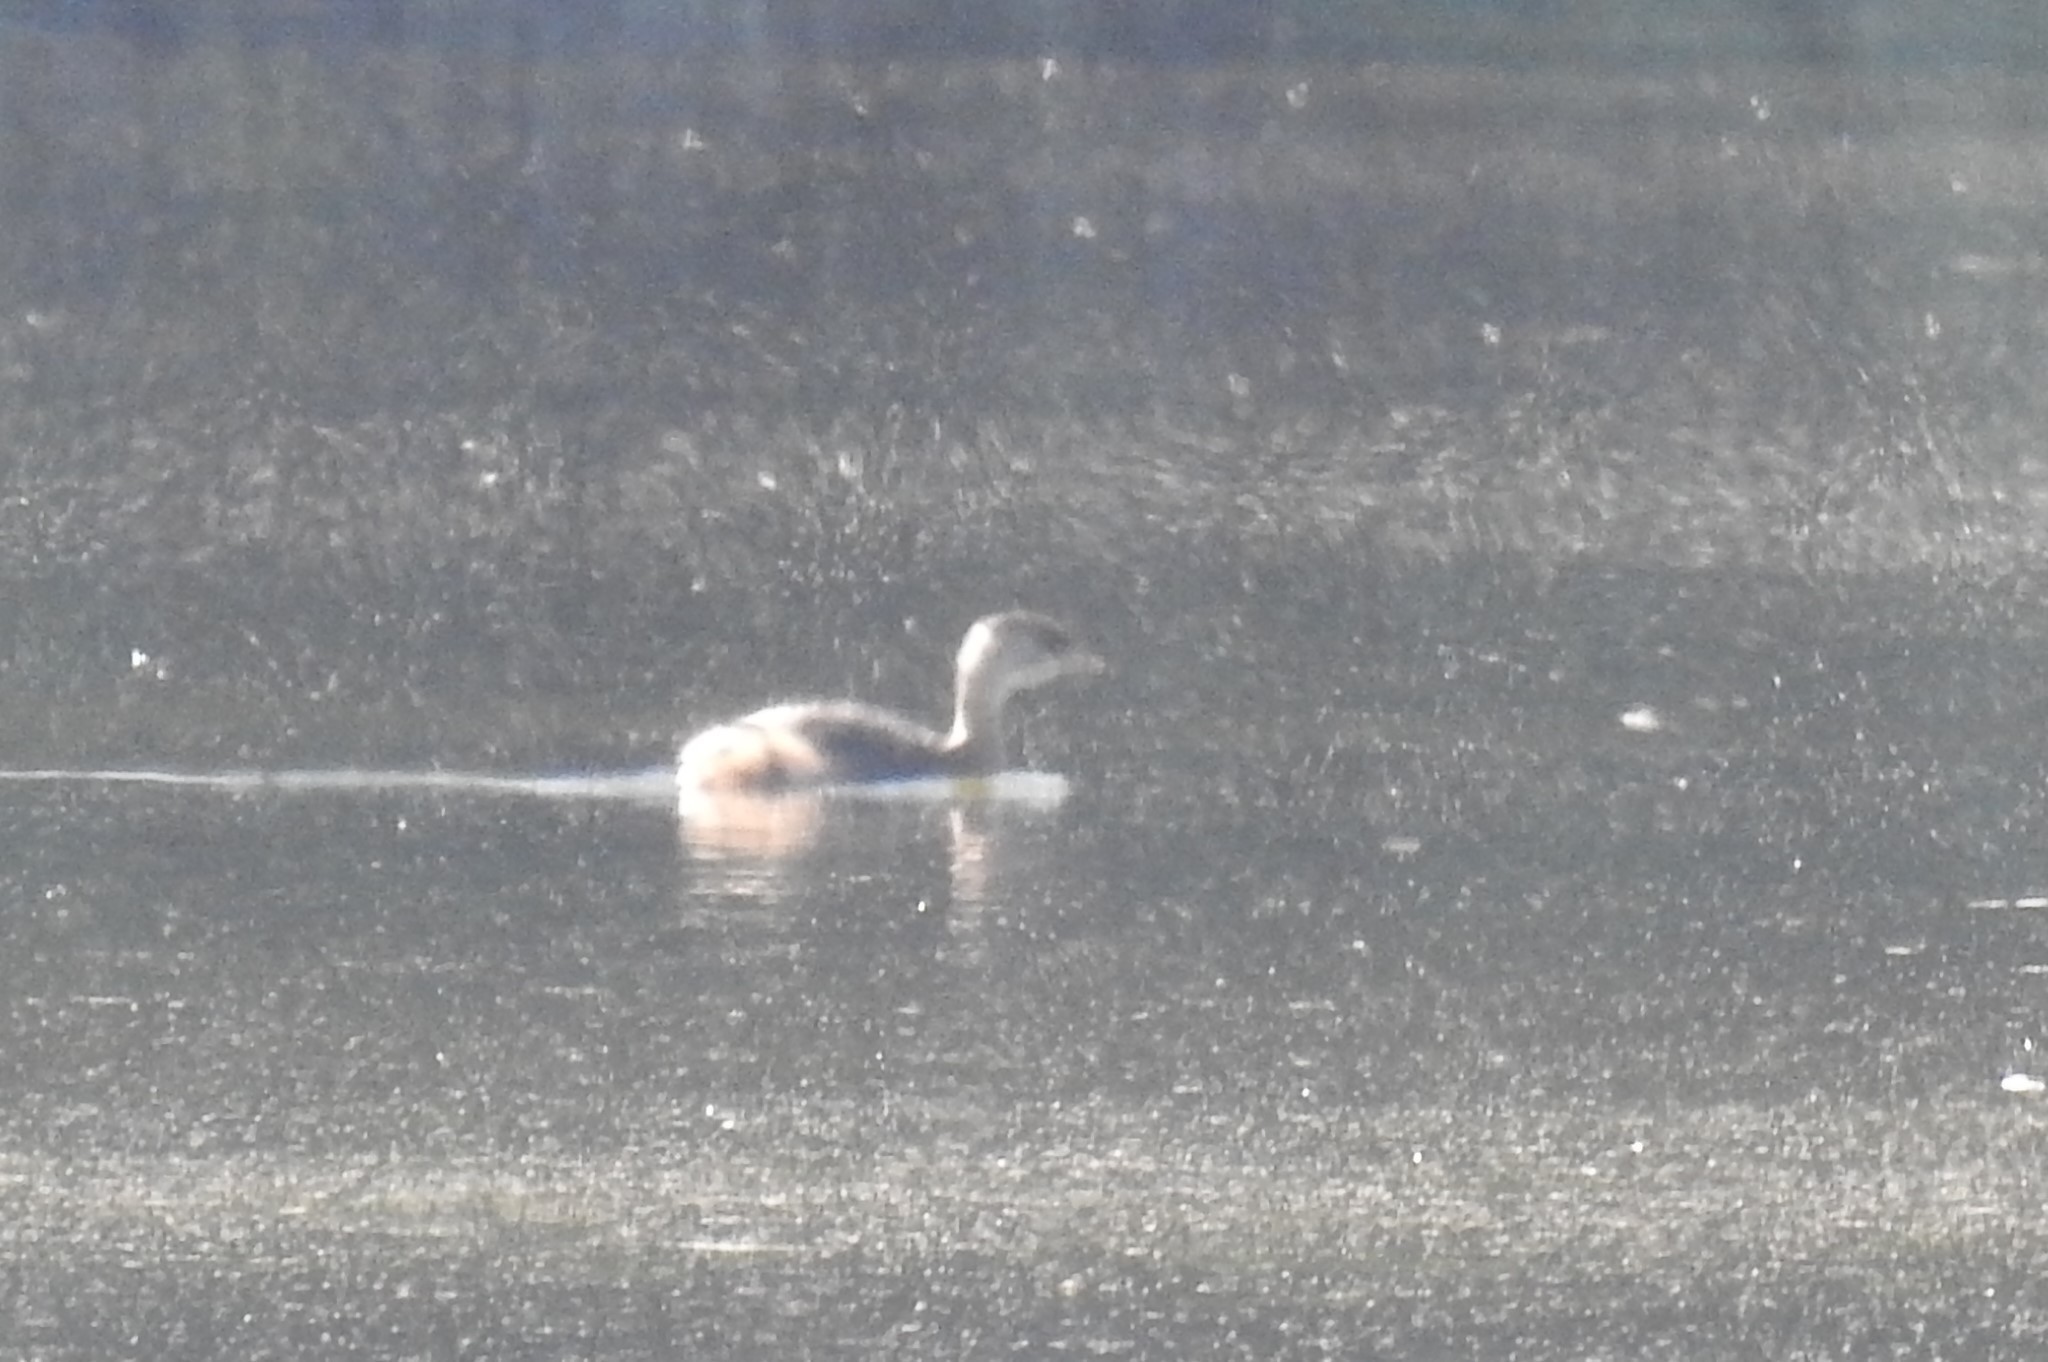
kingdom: Animalia
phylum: Chordata
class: Aves
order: Podicipediformes
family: Podicipedidae
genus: Podilymbus
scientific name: Podilymbus podiceps
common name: Pied-billed grebe
